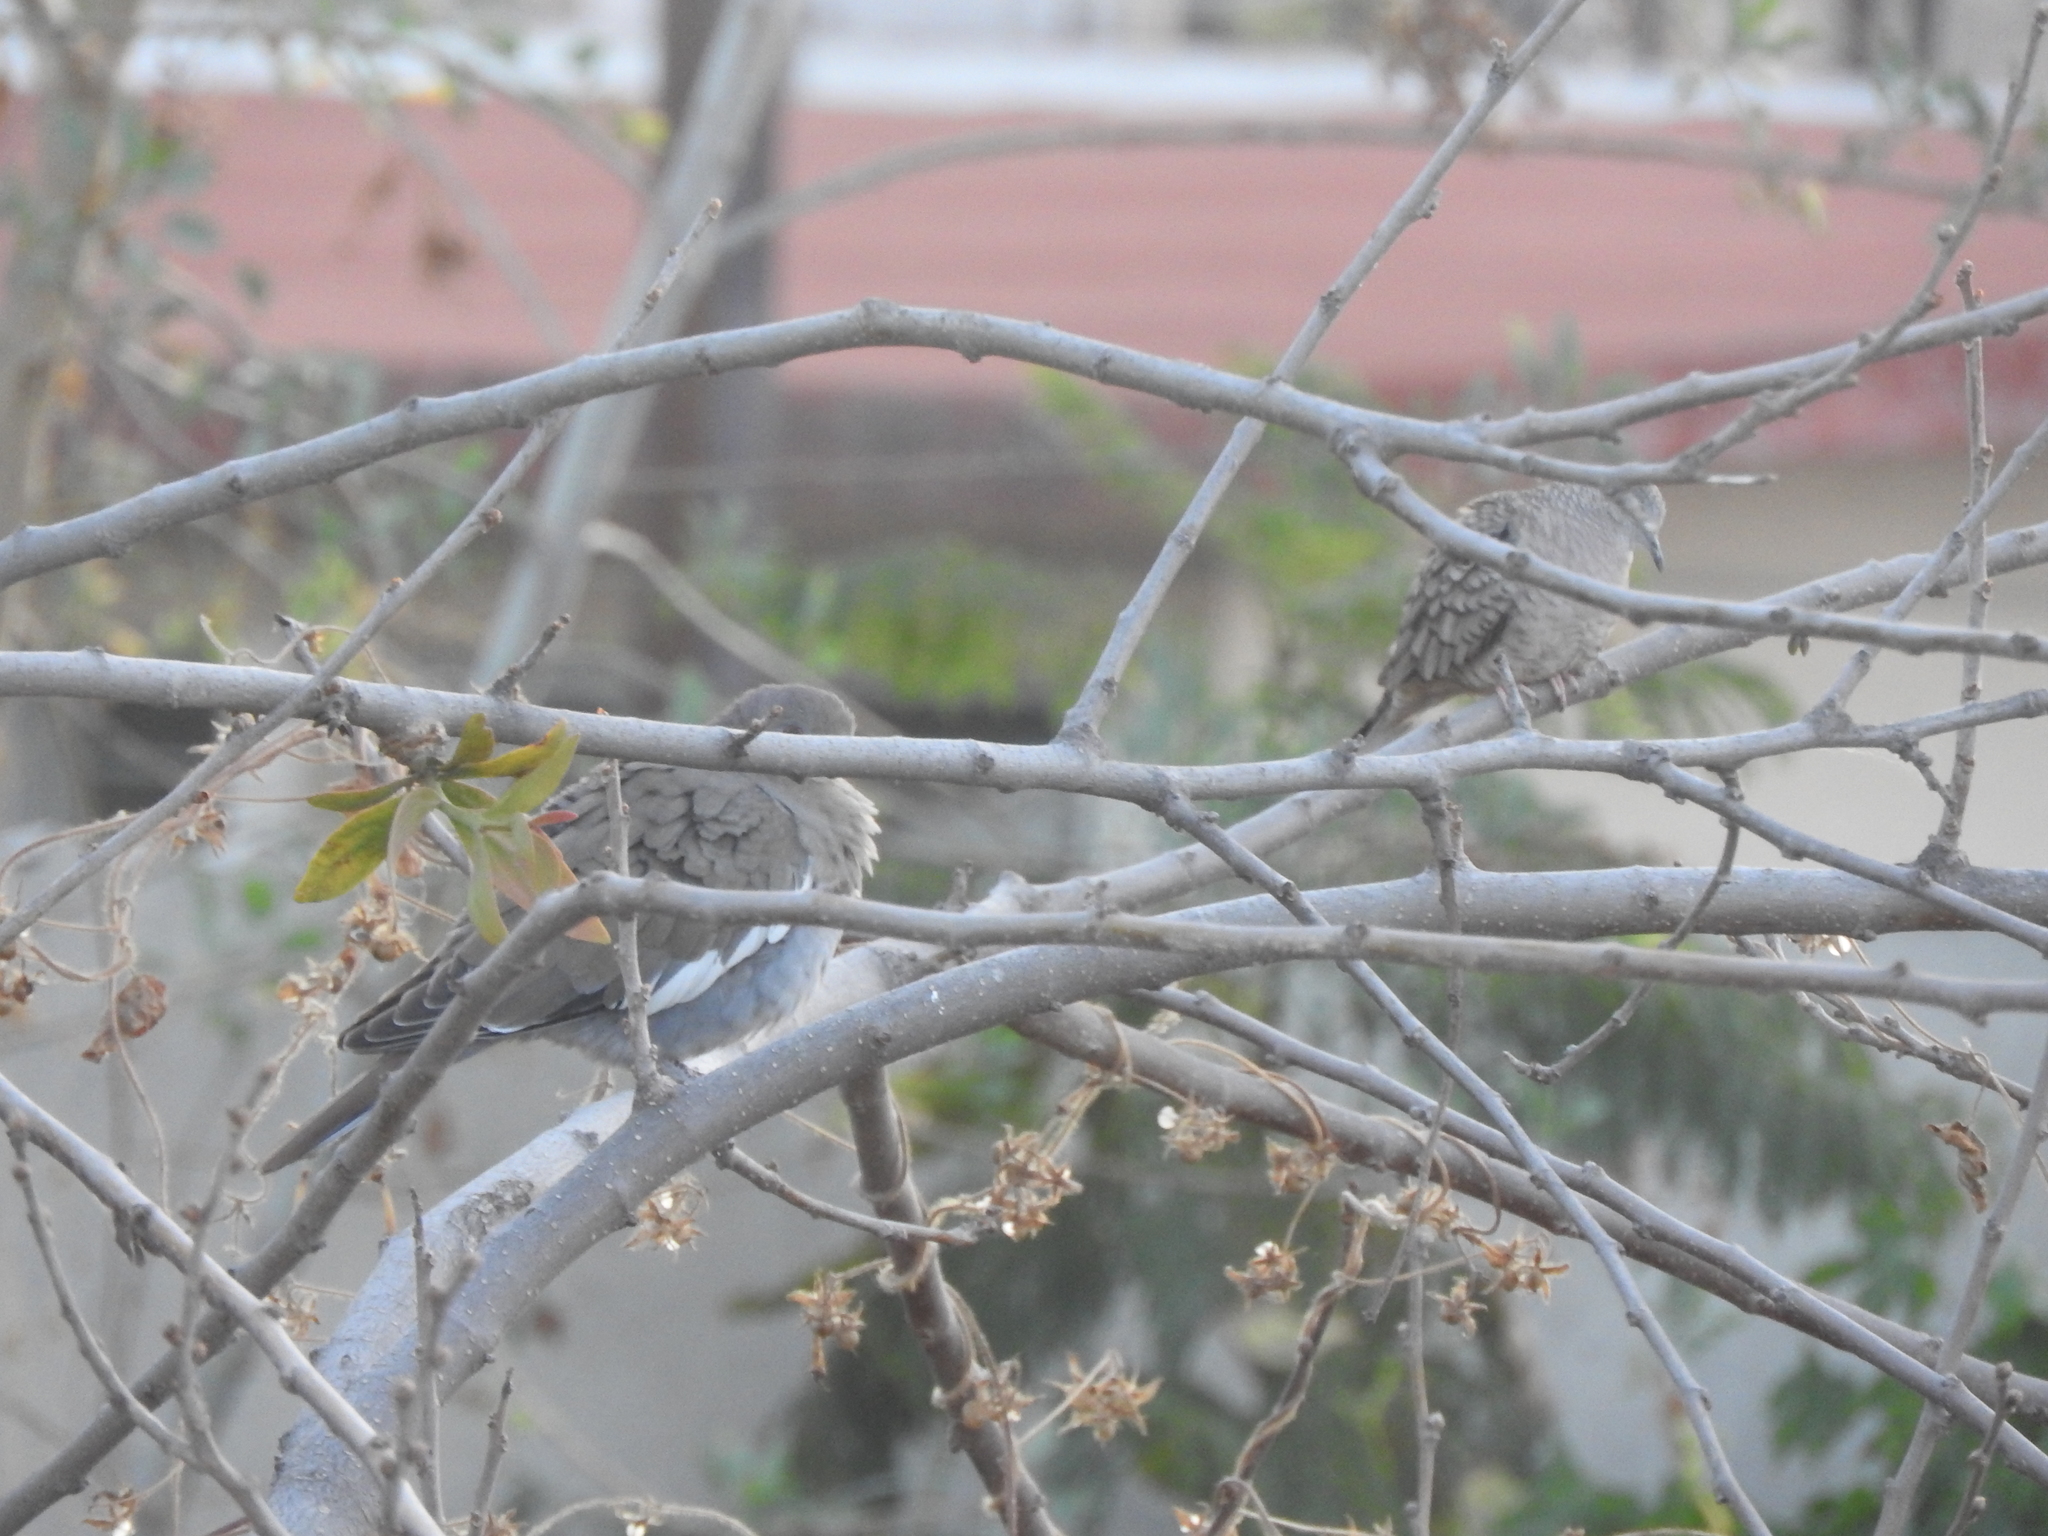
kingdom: Animalia
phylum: Chordata
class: Aves
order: Columbiformes
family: Columbidae
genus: Zenaida
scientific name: Zenaida asiatica
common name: White-winged dove
